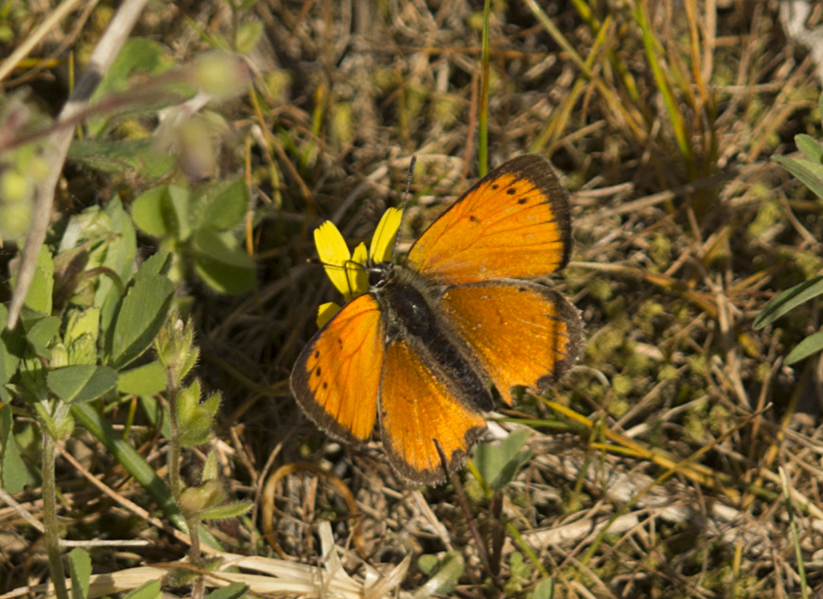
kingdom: Animalia
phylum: Arthropoda
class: Insecta
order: Lepidoptera
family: Lycaenidae
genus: Polyommatus
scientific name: Polyommatus ottomanus
